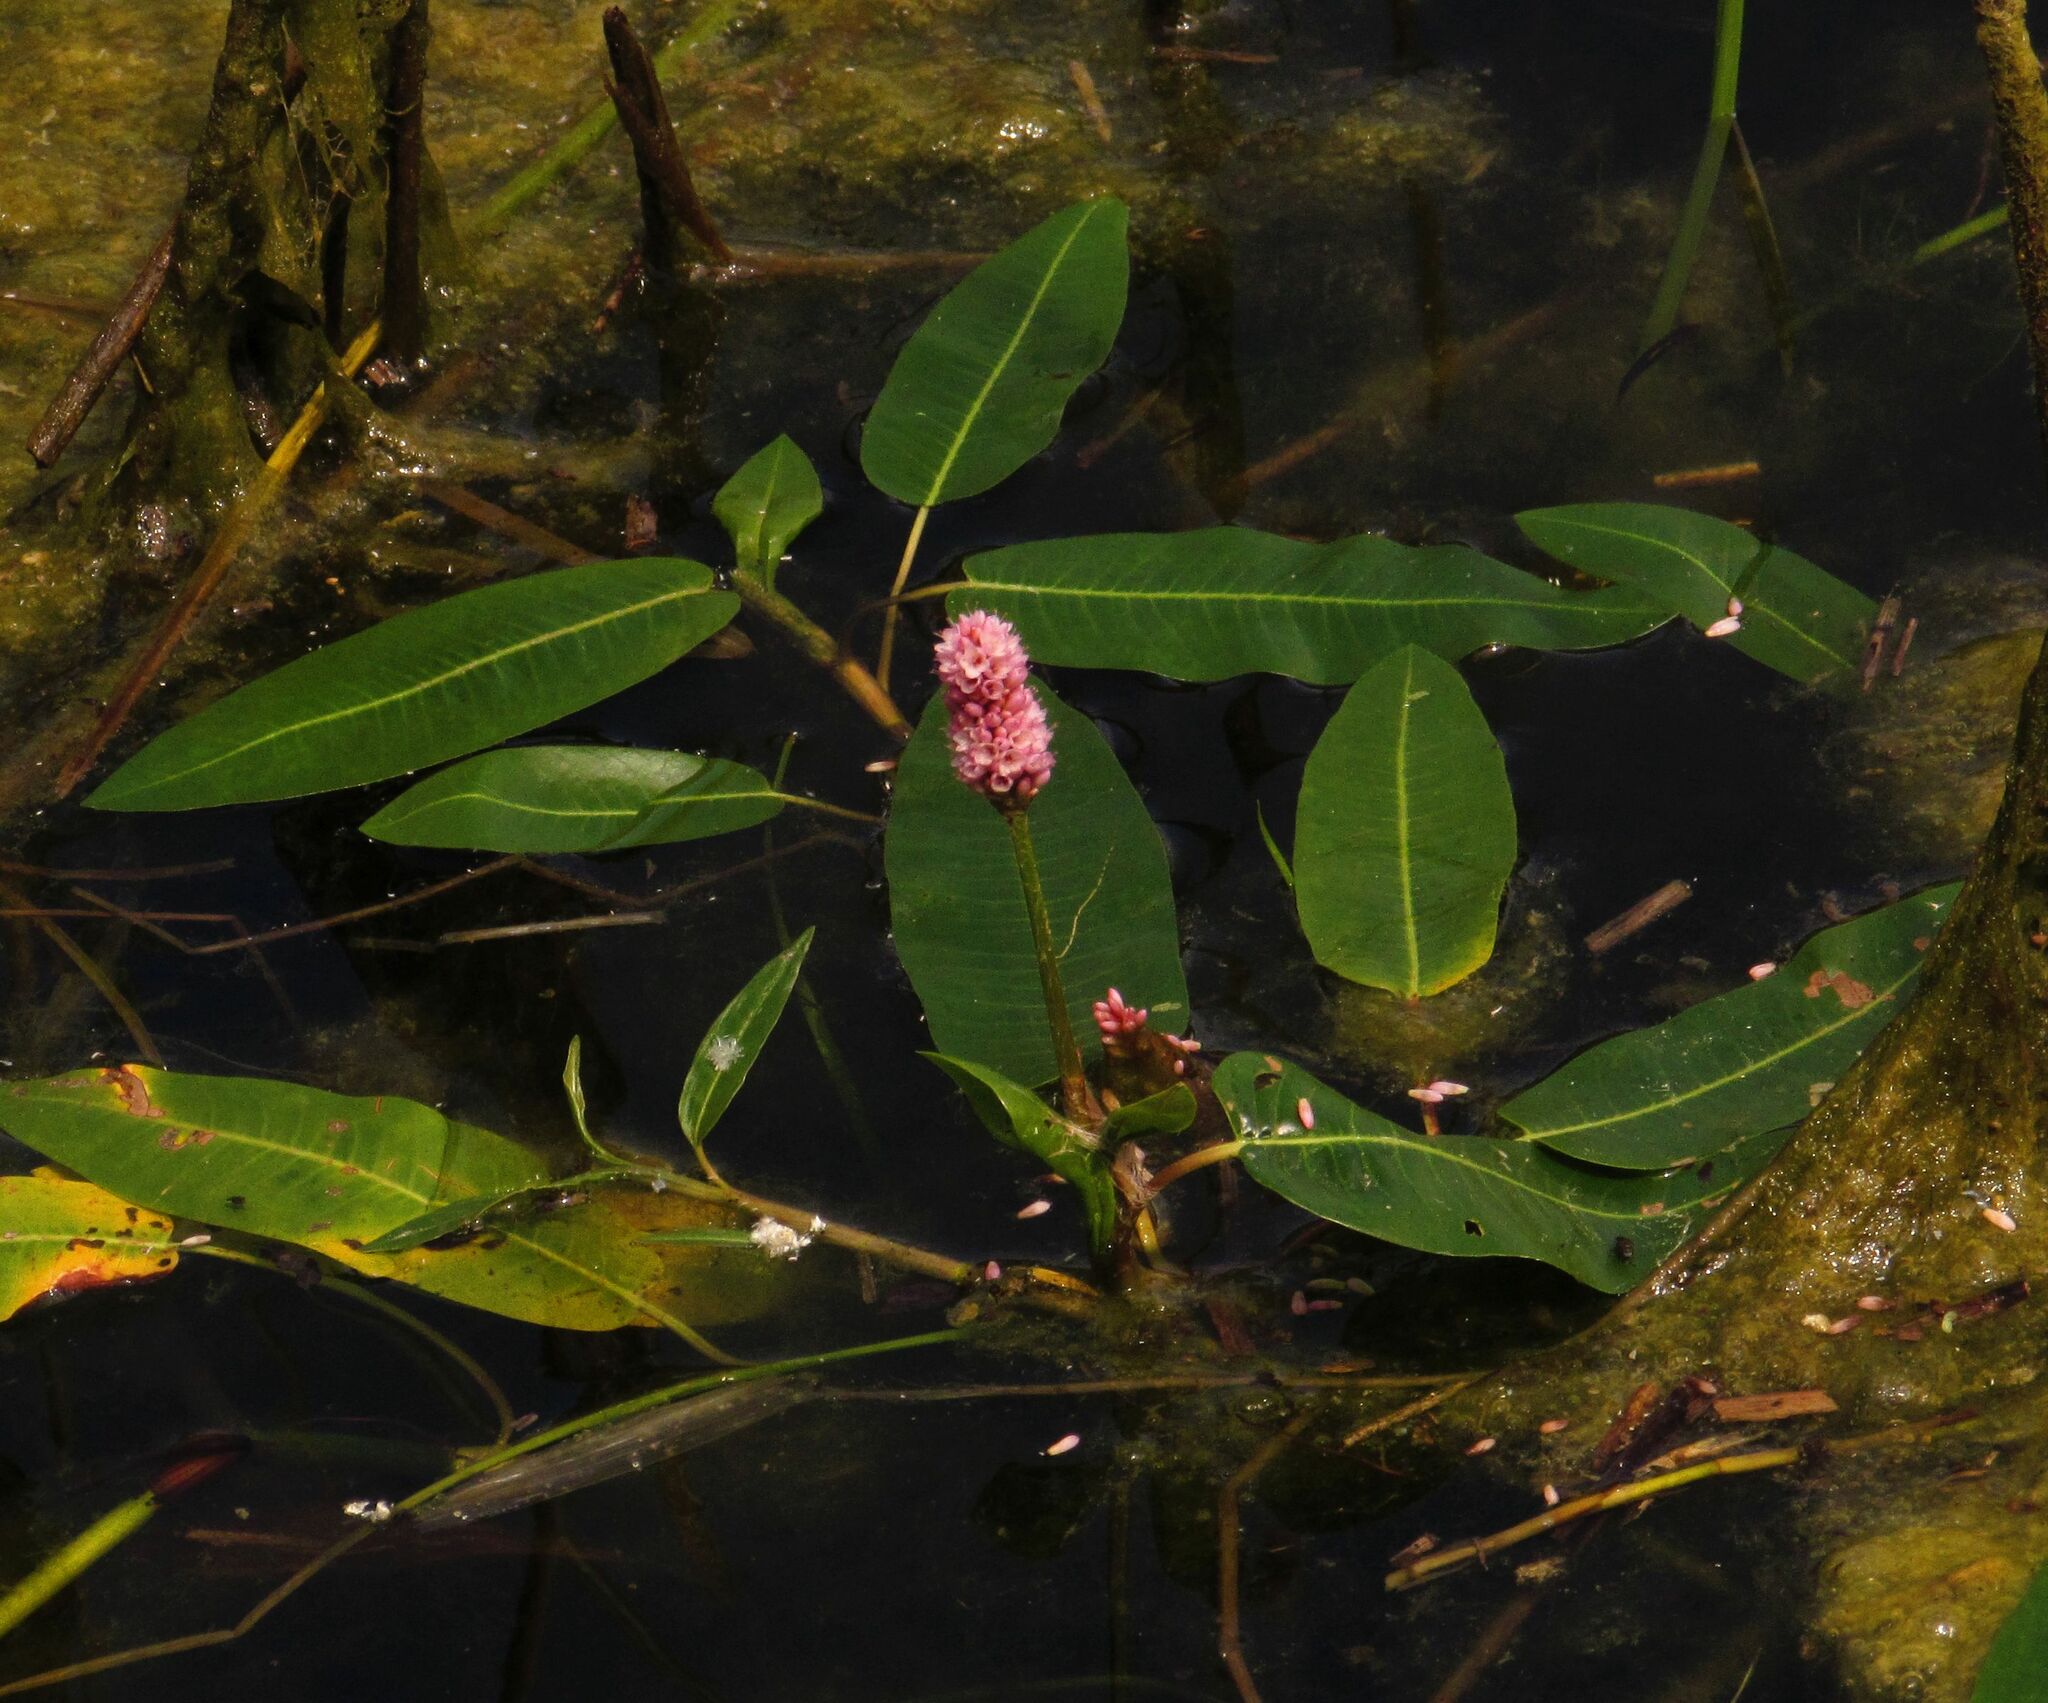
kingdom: Plantae
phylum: Tracheophyta
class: Magnoliopsida
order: Caryophyllales
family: Polygonaceae
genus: Persicaria
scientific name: Persicaria amphibia
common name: Amphibious bistort
